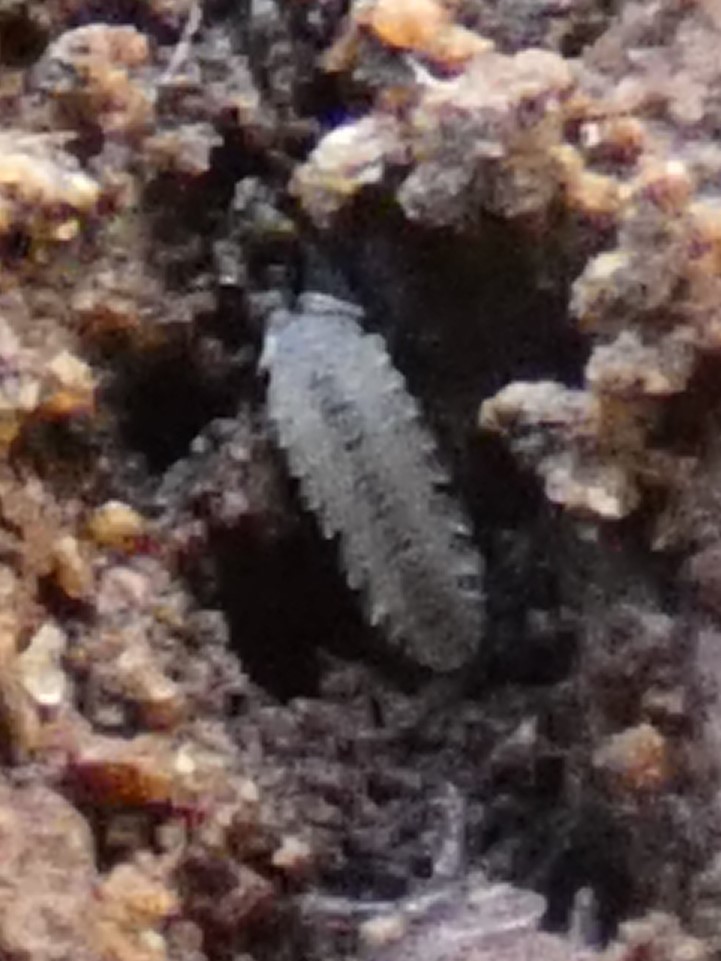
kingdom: Animalia
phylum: Arthropoda
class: Malacostraca
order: Isopoda
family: Trichoniscidae
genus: Haplophthalmus
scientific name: Haplophthalmus danicus
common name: Pillbug
